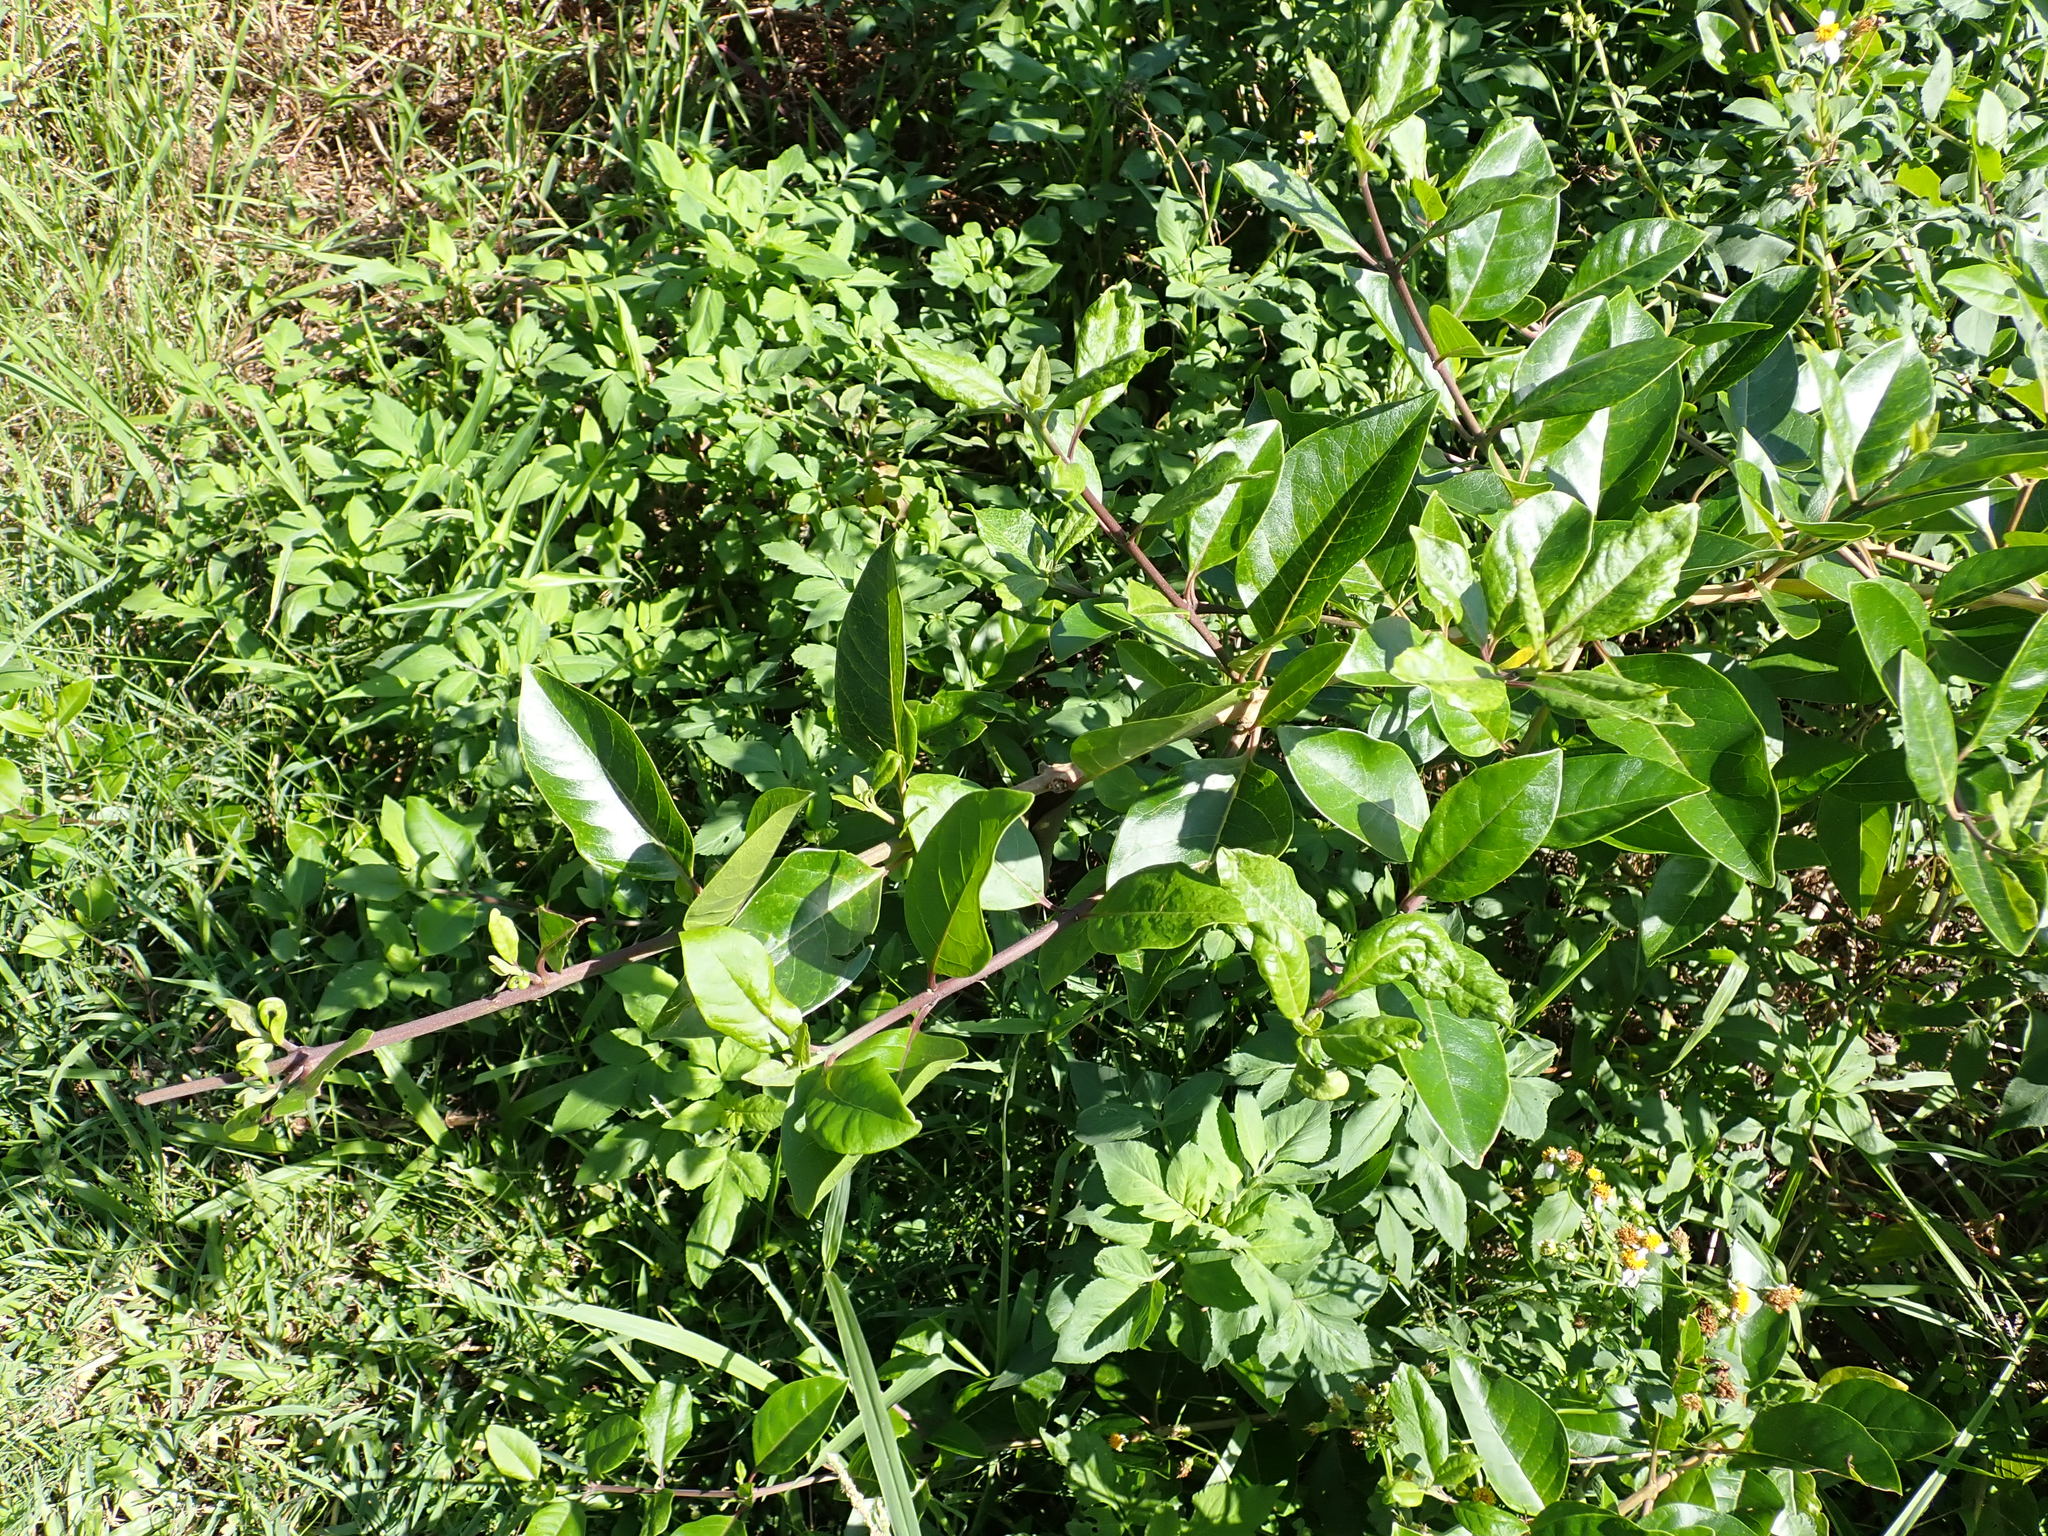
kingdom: Plantae
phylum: Tracheophyta
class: Magnoliopsida
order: Lamiales
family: Lamiaceae
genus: Volkameria
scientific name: Volkameria inermis
